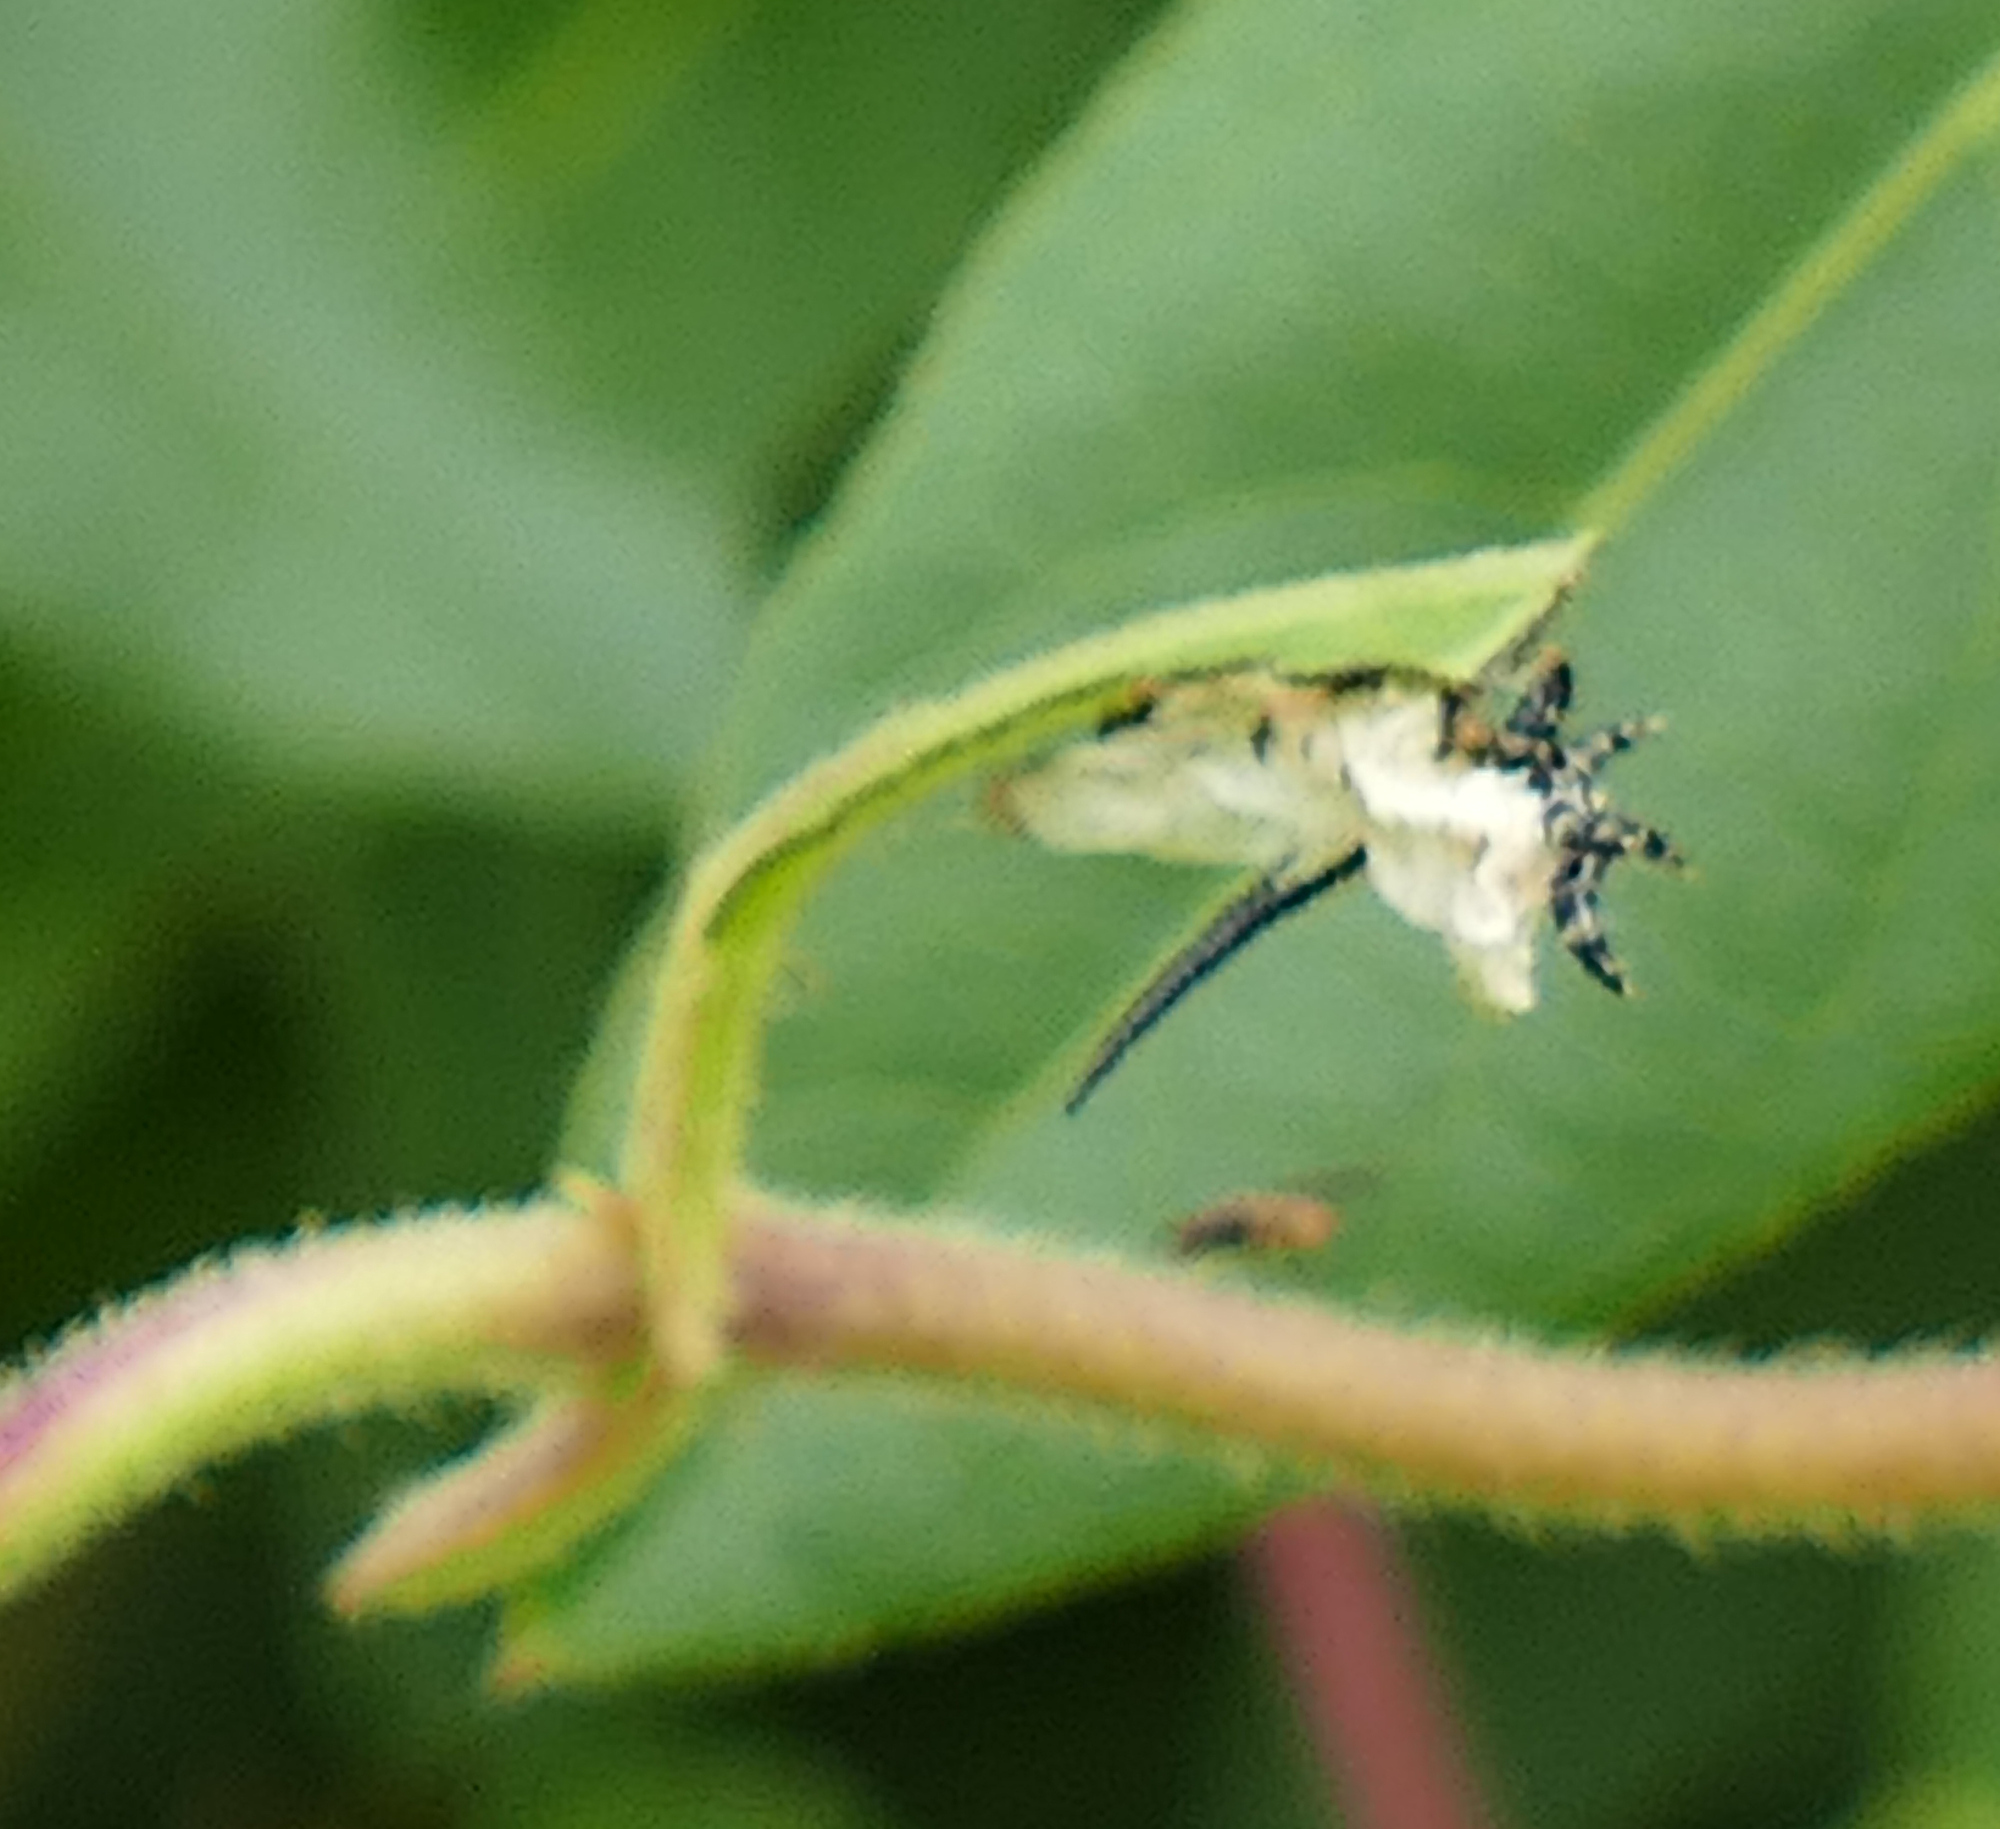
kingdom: Animalia
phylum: Arthropoda
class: Insecta
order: Lepidoptera
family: Sphingidae
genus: Hemaris
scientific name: Hemaris diffinis
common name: Bumblebee moth
